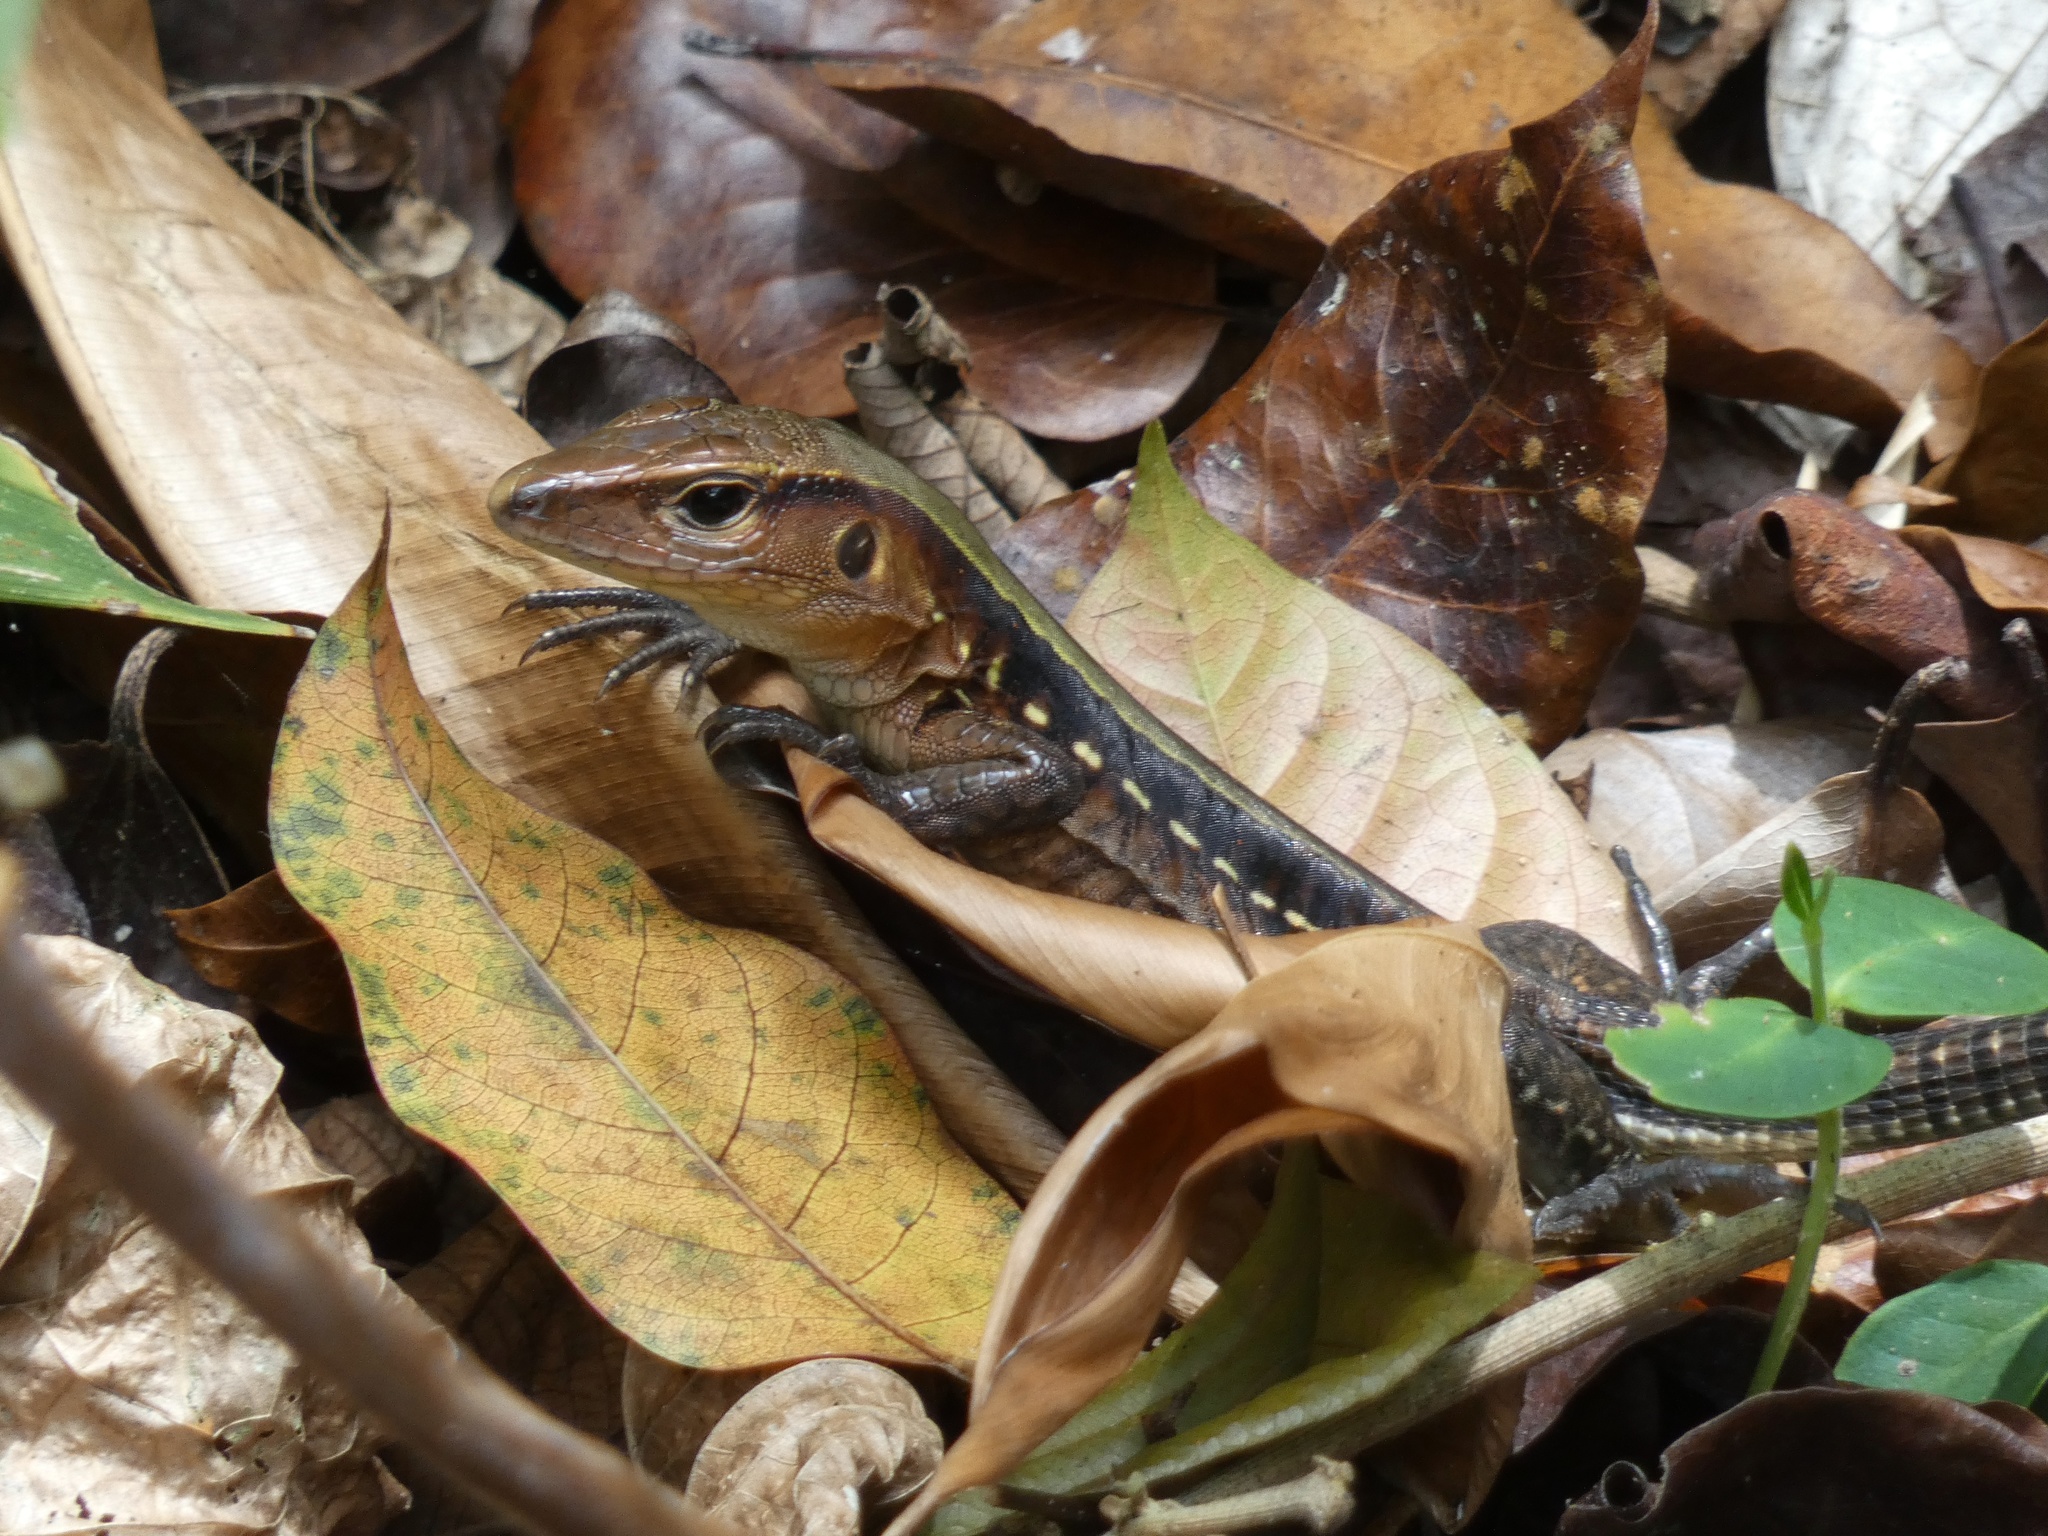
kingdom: Animalia
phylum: Chordata
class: Squamata
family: Teiidae
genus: Holcosus
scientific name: Holcosus leptophrys
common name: Delicate ameiva
